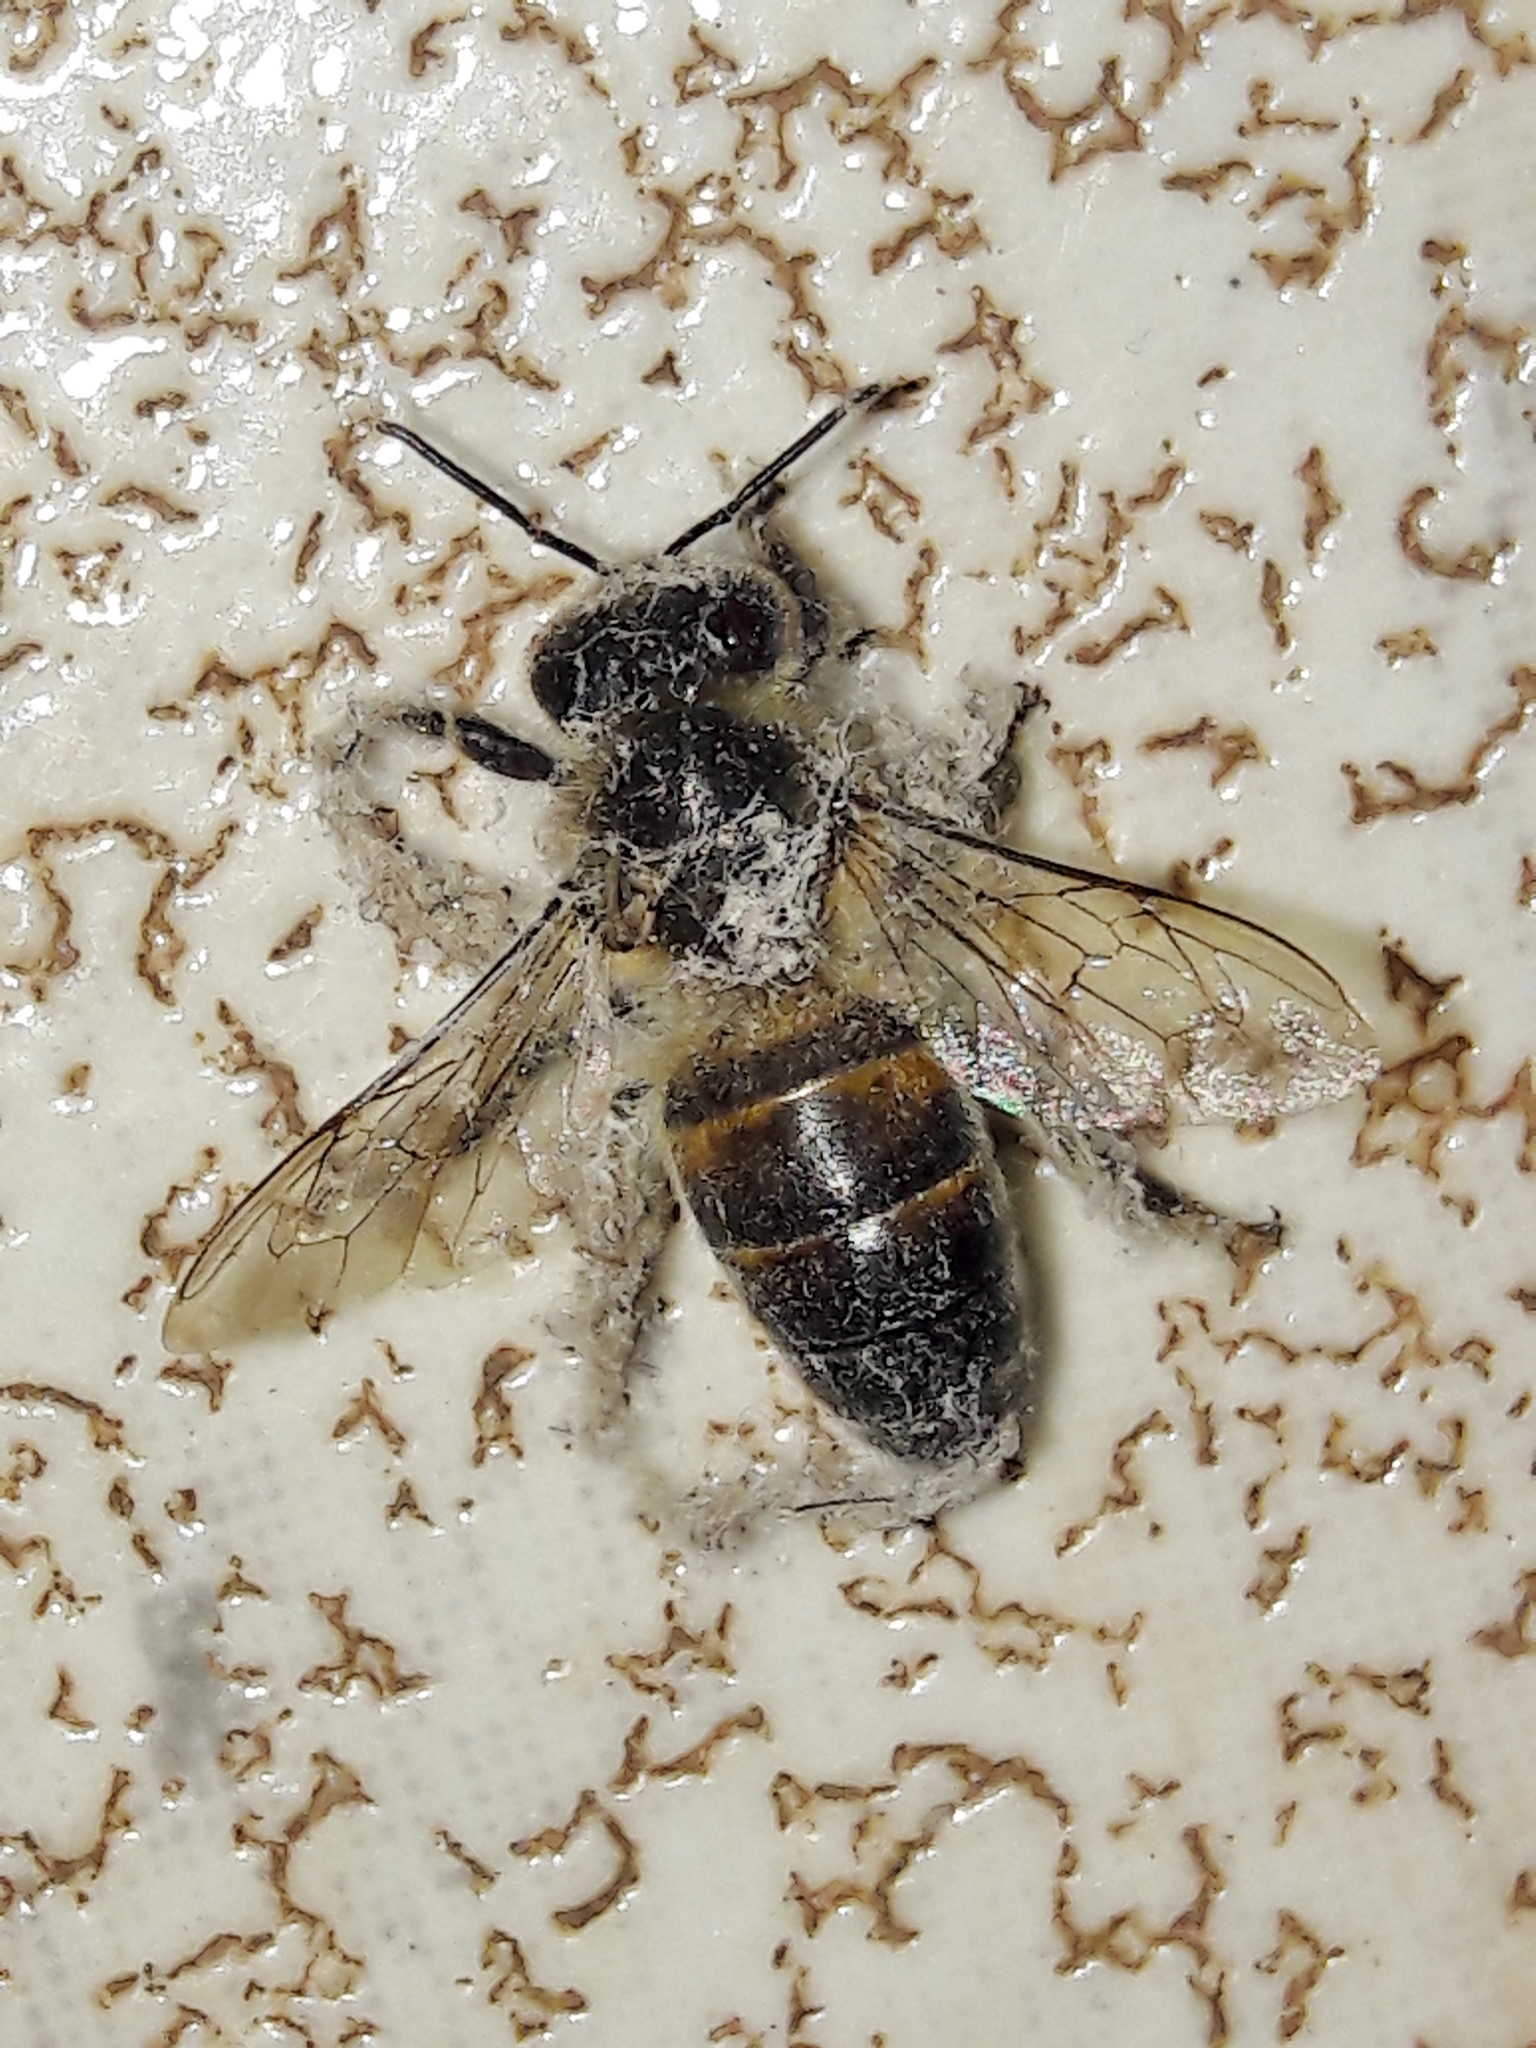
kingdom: Animalia
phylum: Arthropoda
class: Insecta
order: Hymenoptera
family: Apidae
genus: Apis
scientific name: Apis mellifera
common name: Honey bee
